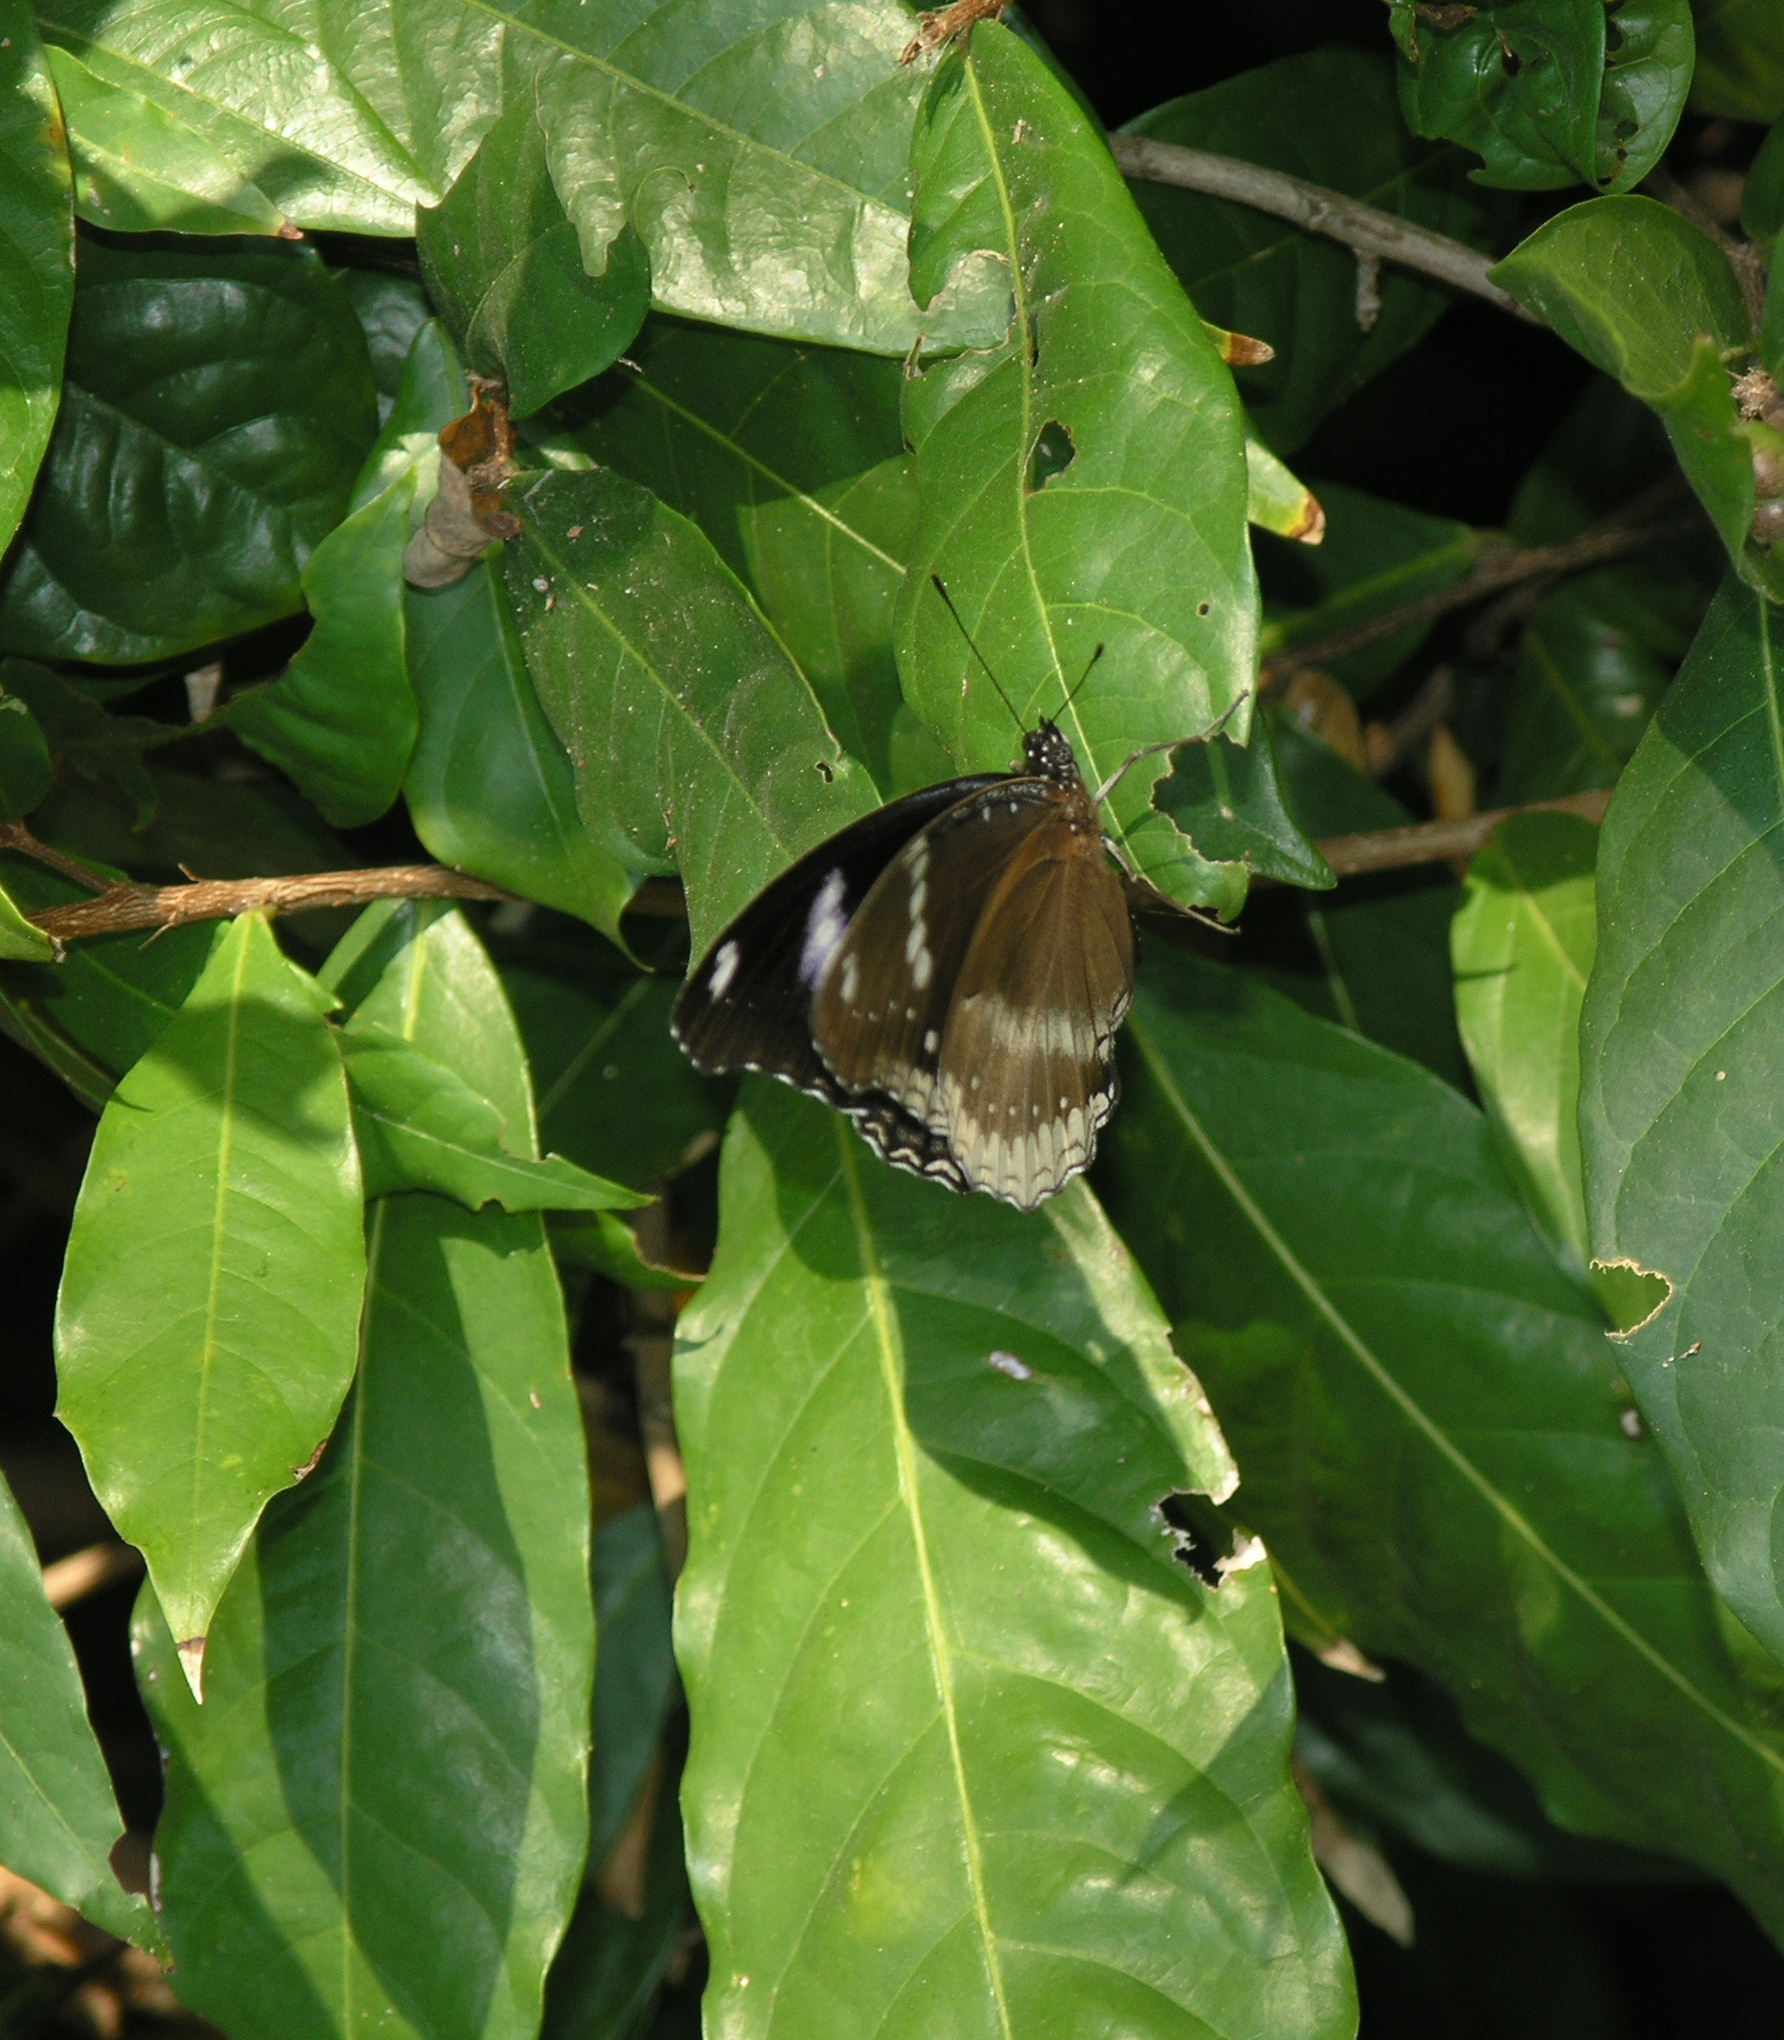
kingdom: Animalia
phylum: Arthropoda
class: Insecta
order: Lepidoptera
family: Nymphalidae
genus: Hypolimnas
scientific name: Hypolimnas bolina
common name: Great eggfly
